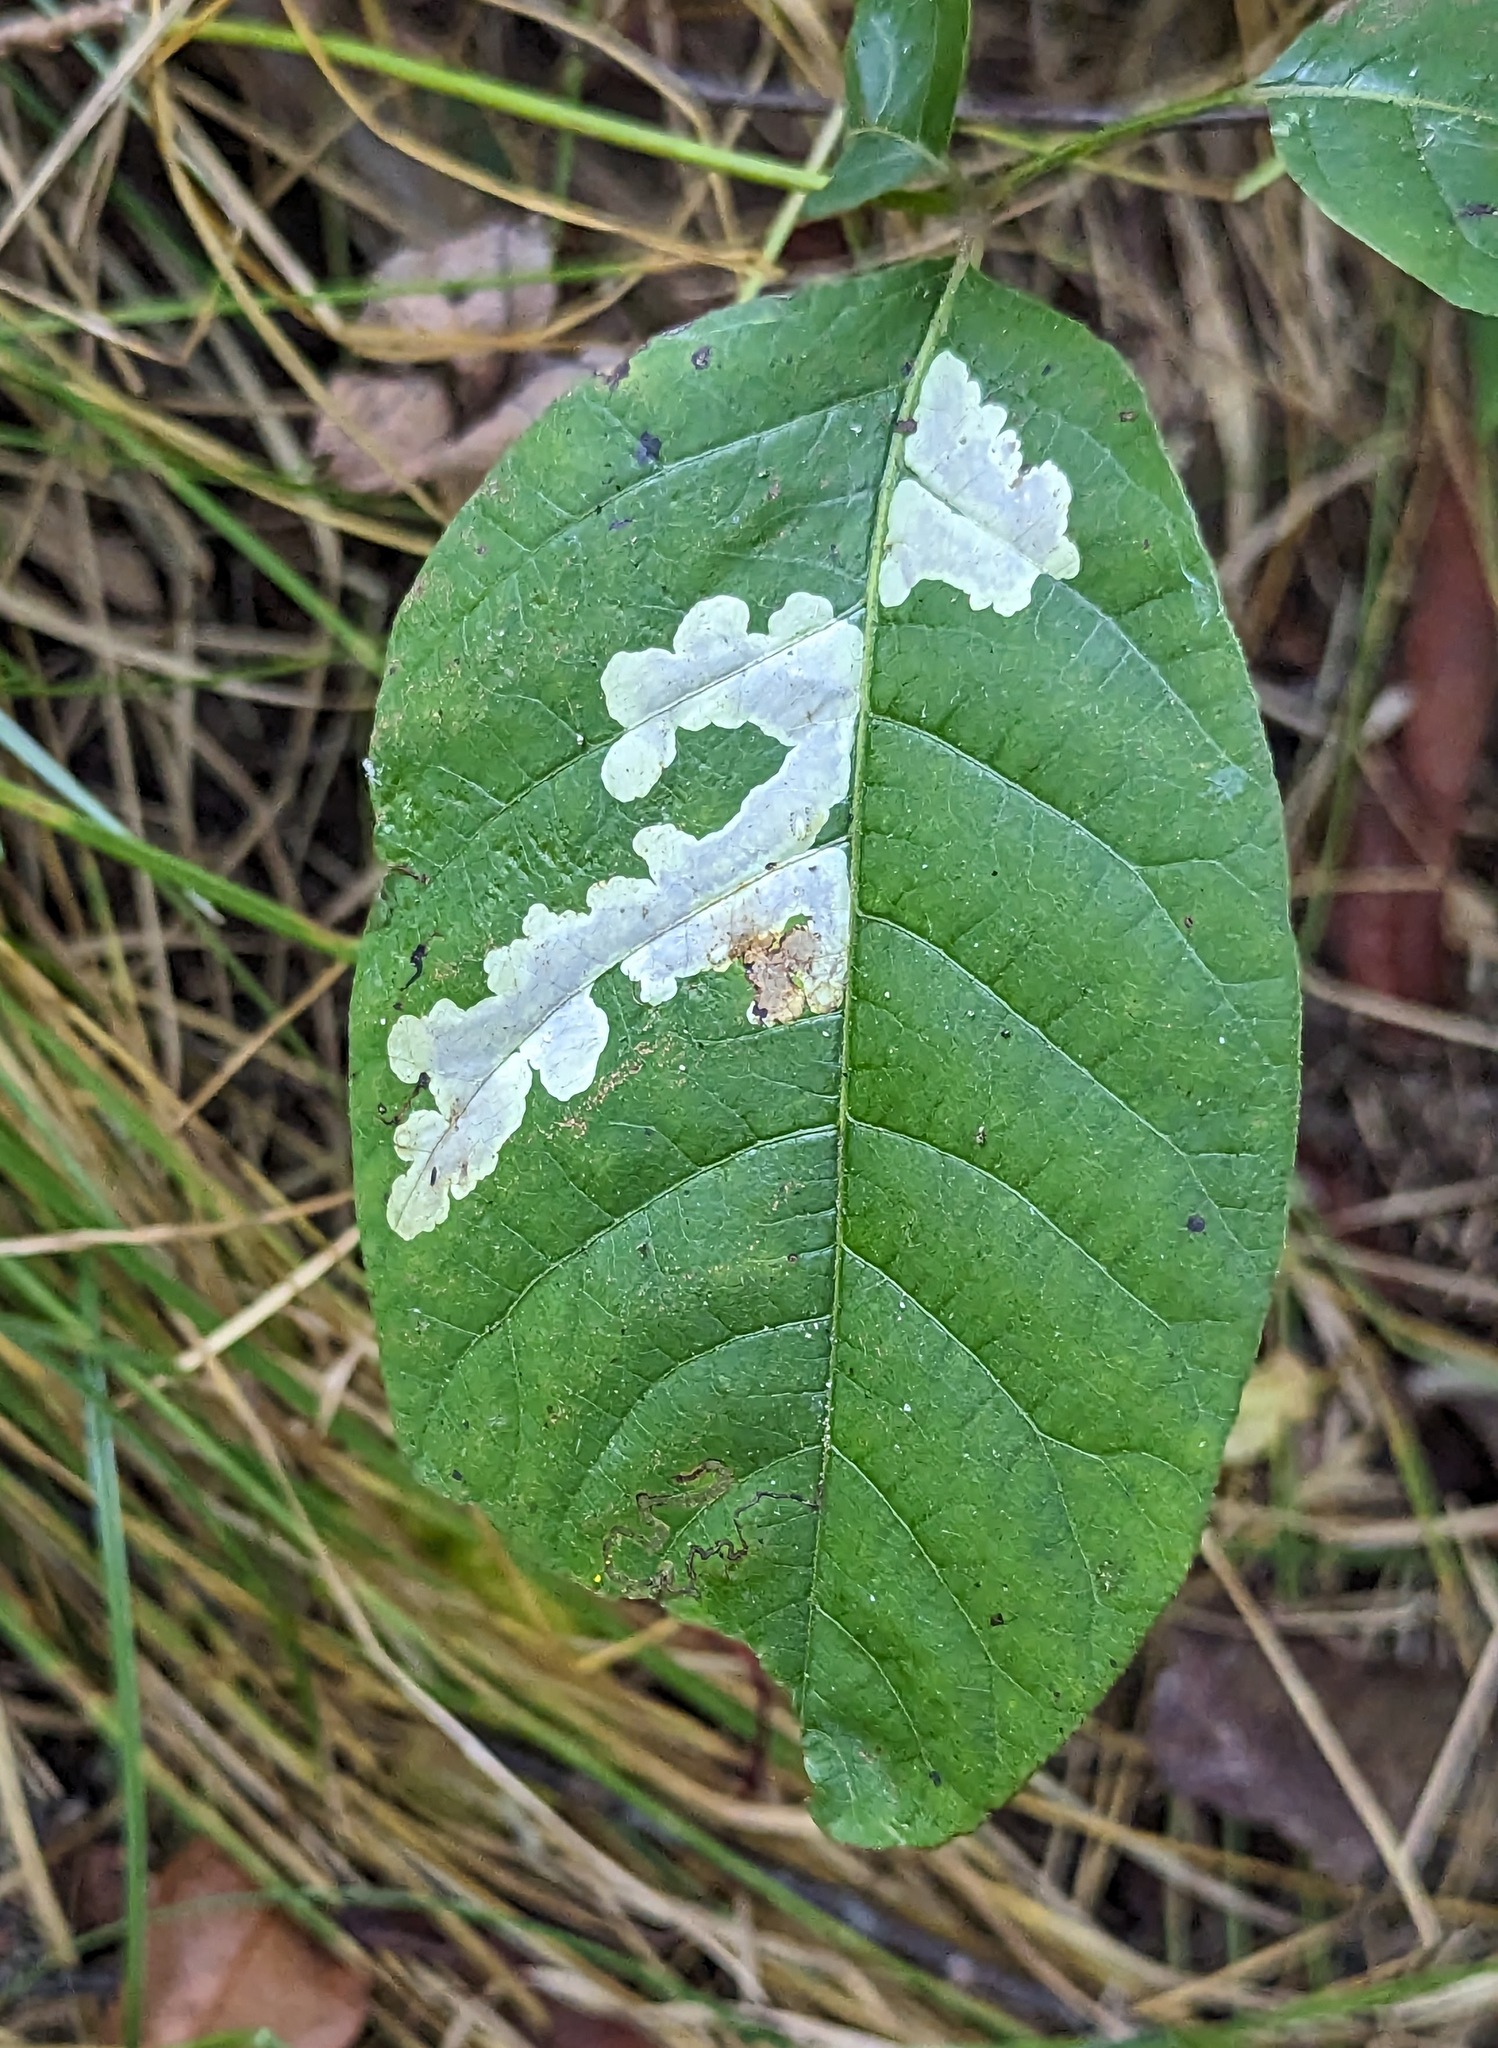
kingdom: Animalia
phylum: Arthropoda
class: Insecta
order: Lepidoptera
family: Gracillariidae
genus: Cameraria
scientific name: Cameraria guttifinitella
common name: Poison ivy leaf-miner moth
